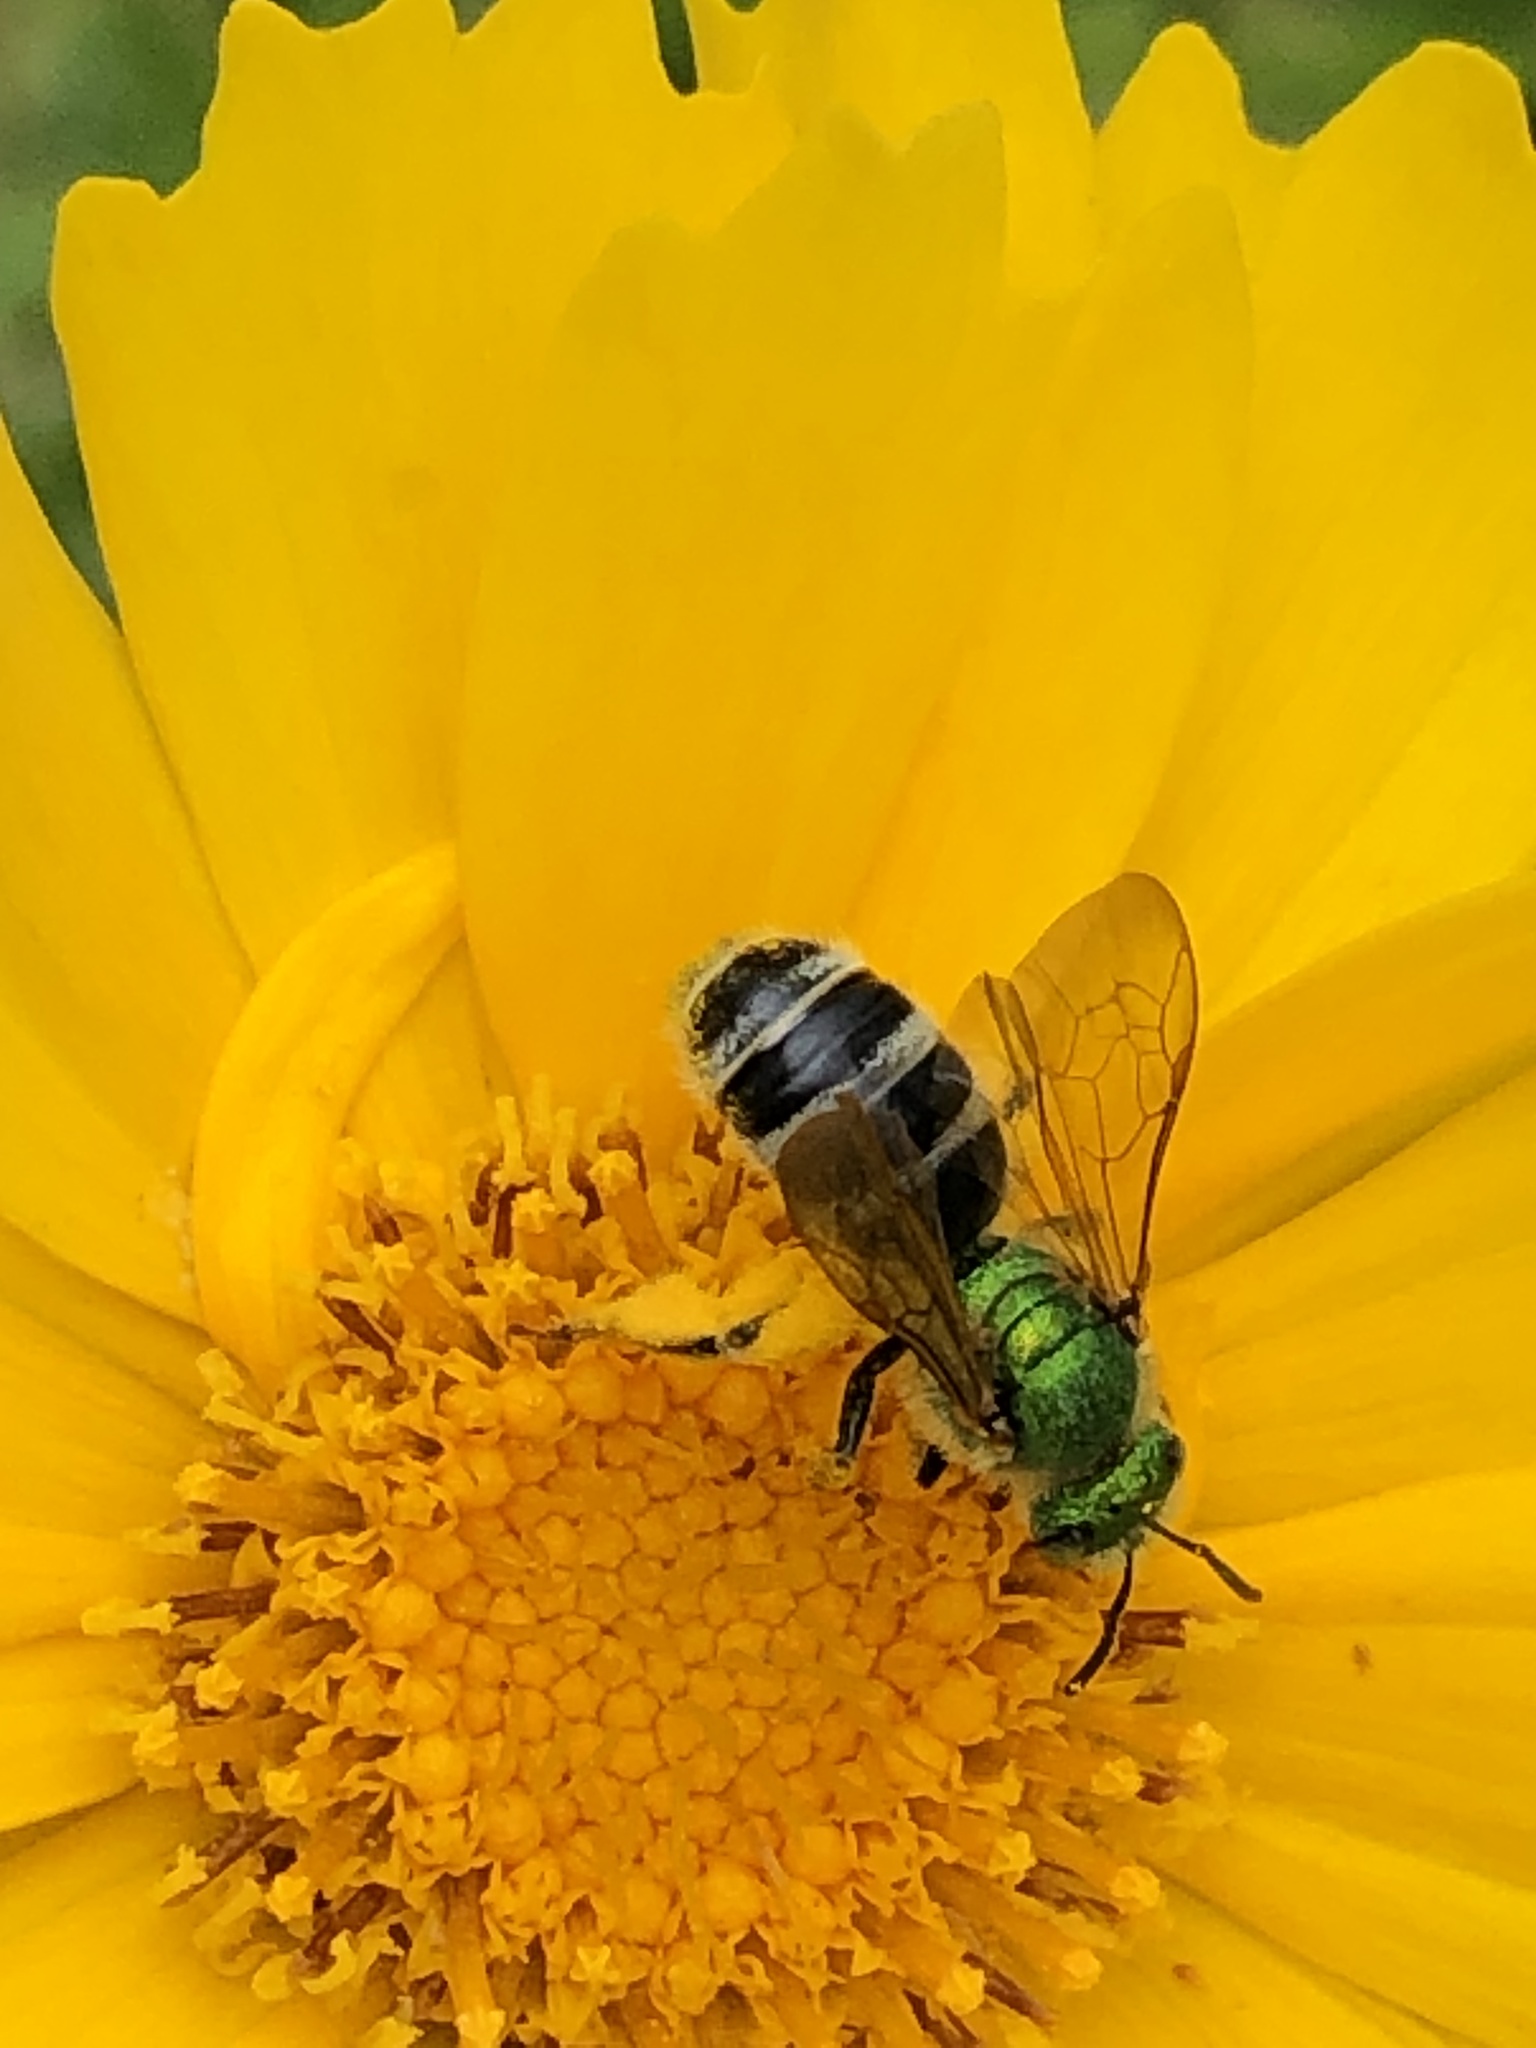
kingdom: Animalia
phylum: Arthropoda
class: Insecta
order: Hymenoptera
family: Halictidae
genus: Agapostemon
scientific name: Agapostemon virescens
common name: Bicolored striped sweat bee
